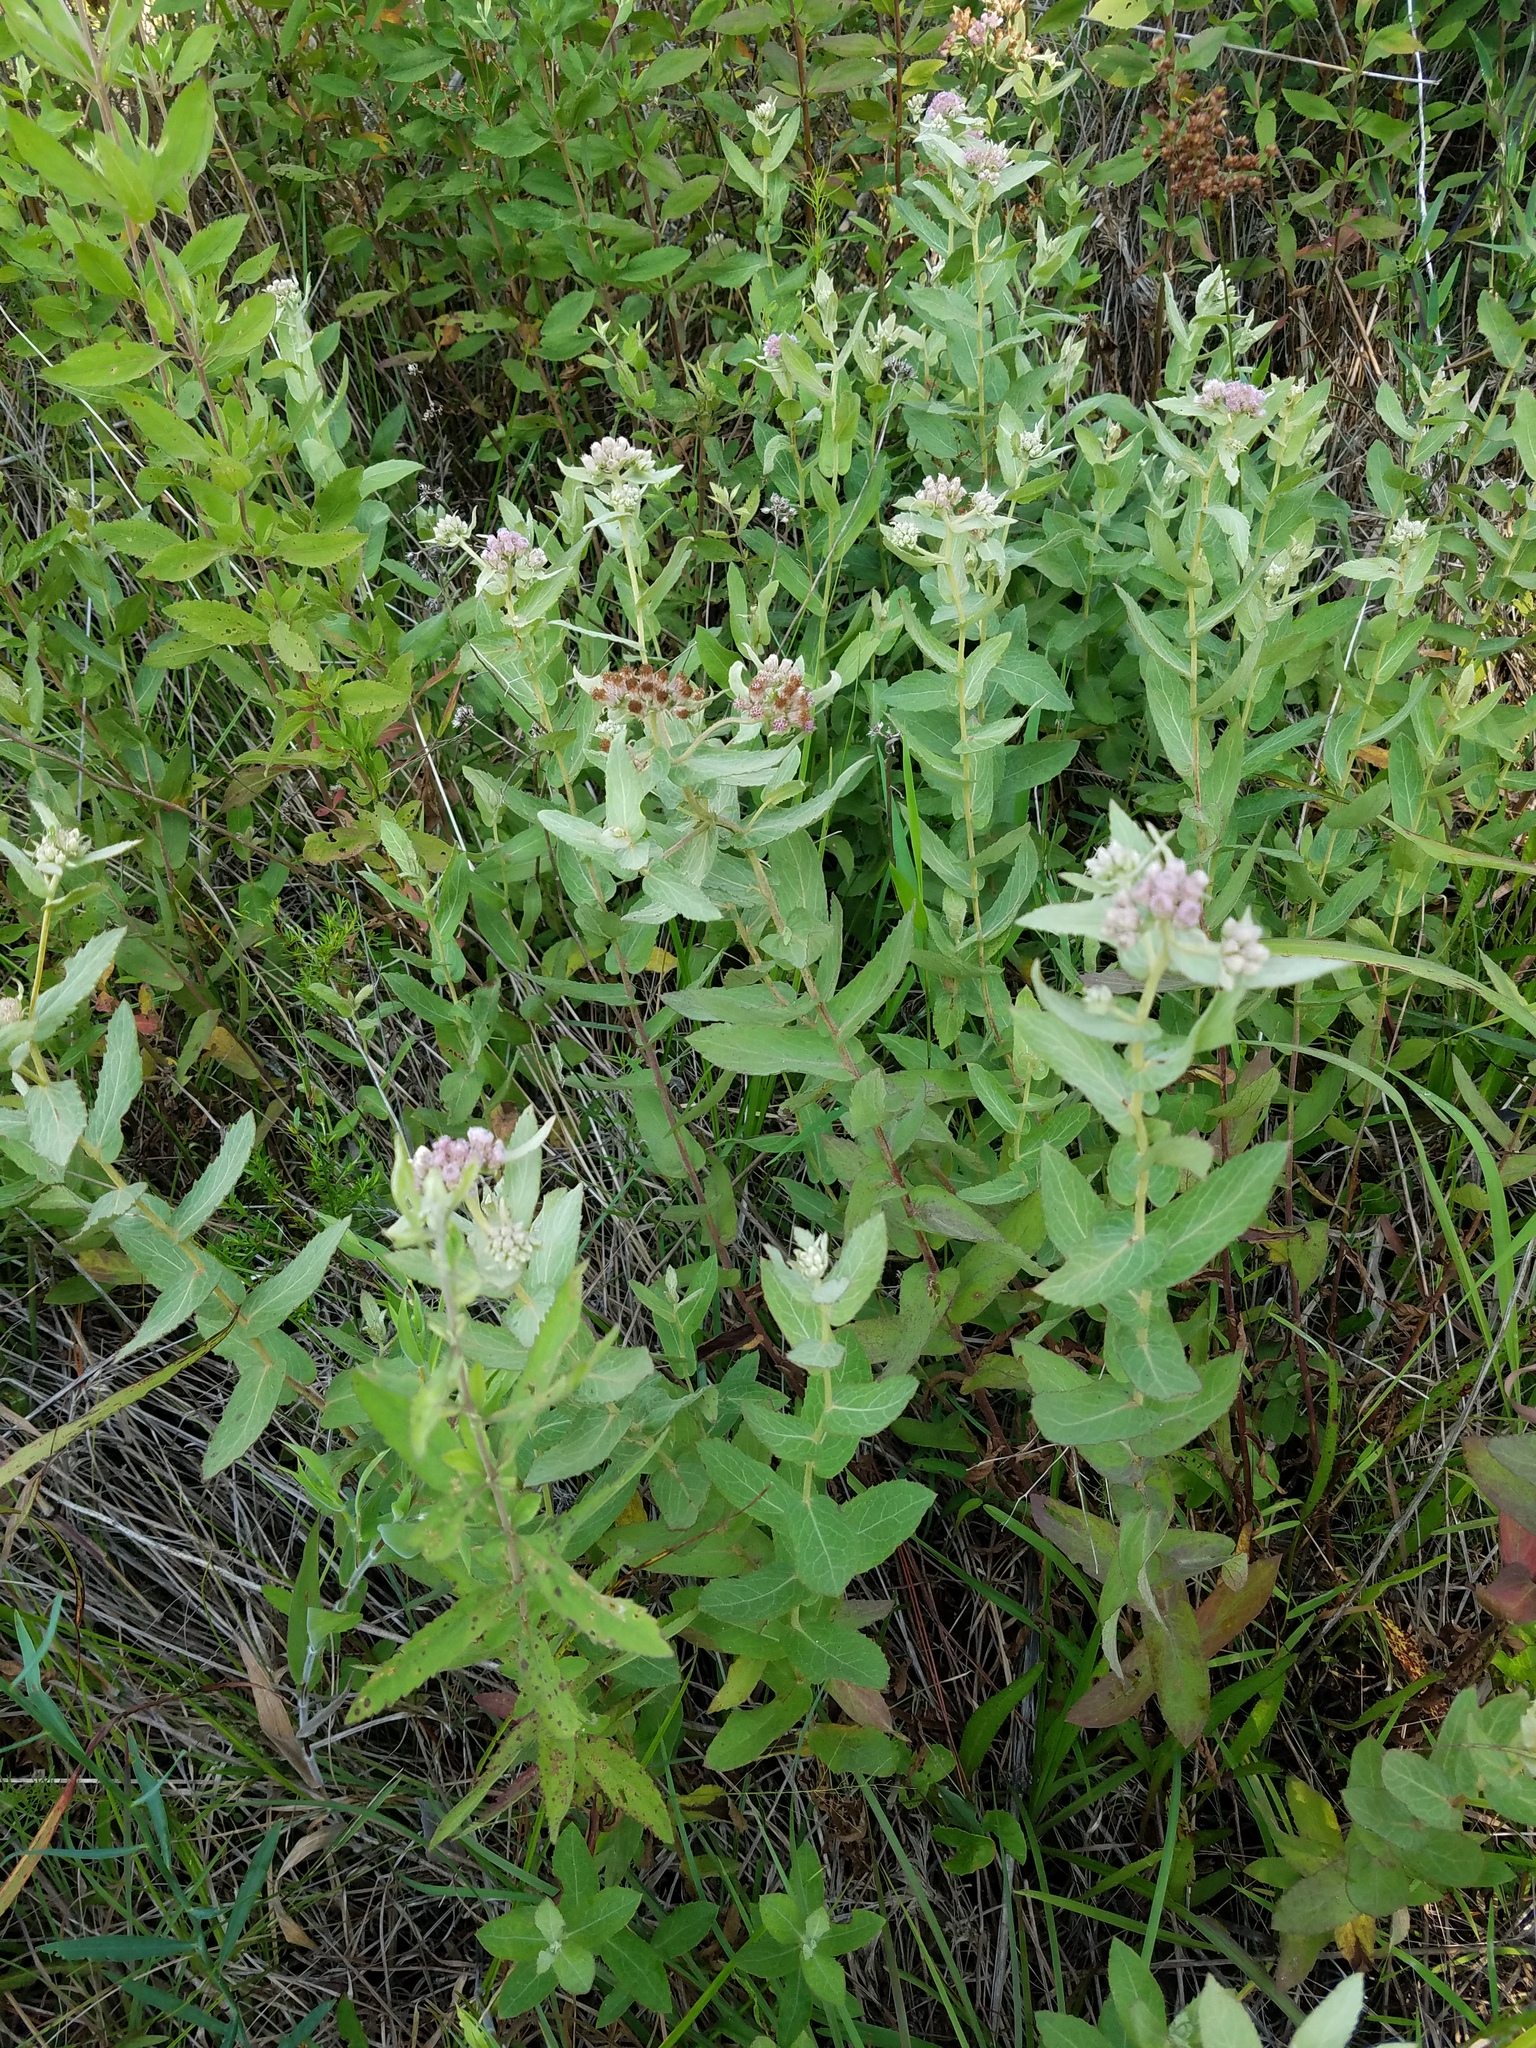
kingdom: Plantae
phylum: Tracheophyta
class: Magnoliopsida
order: Asterales
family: Asteraceae
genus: Pluchea
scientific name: Pluchea baccharis
